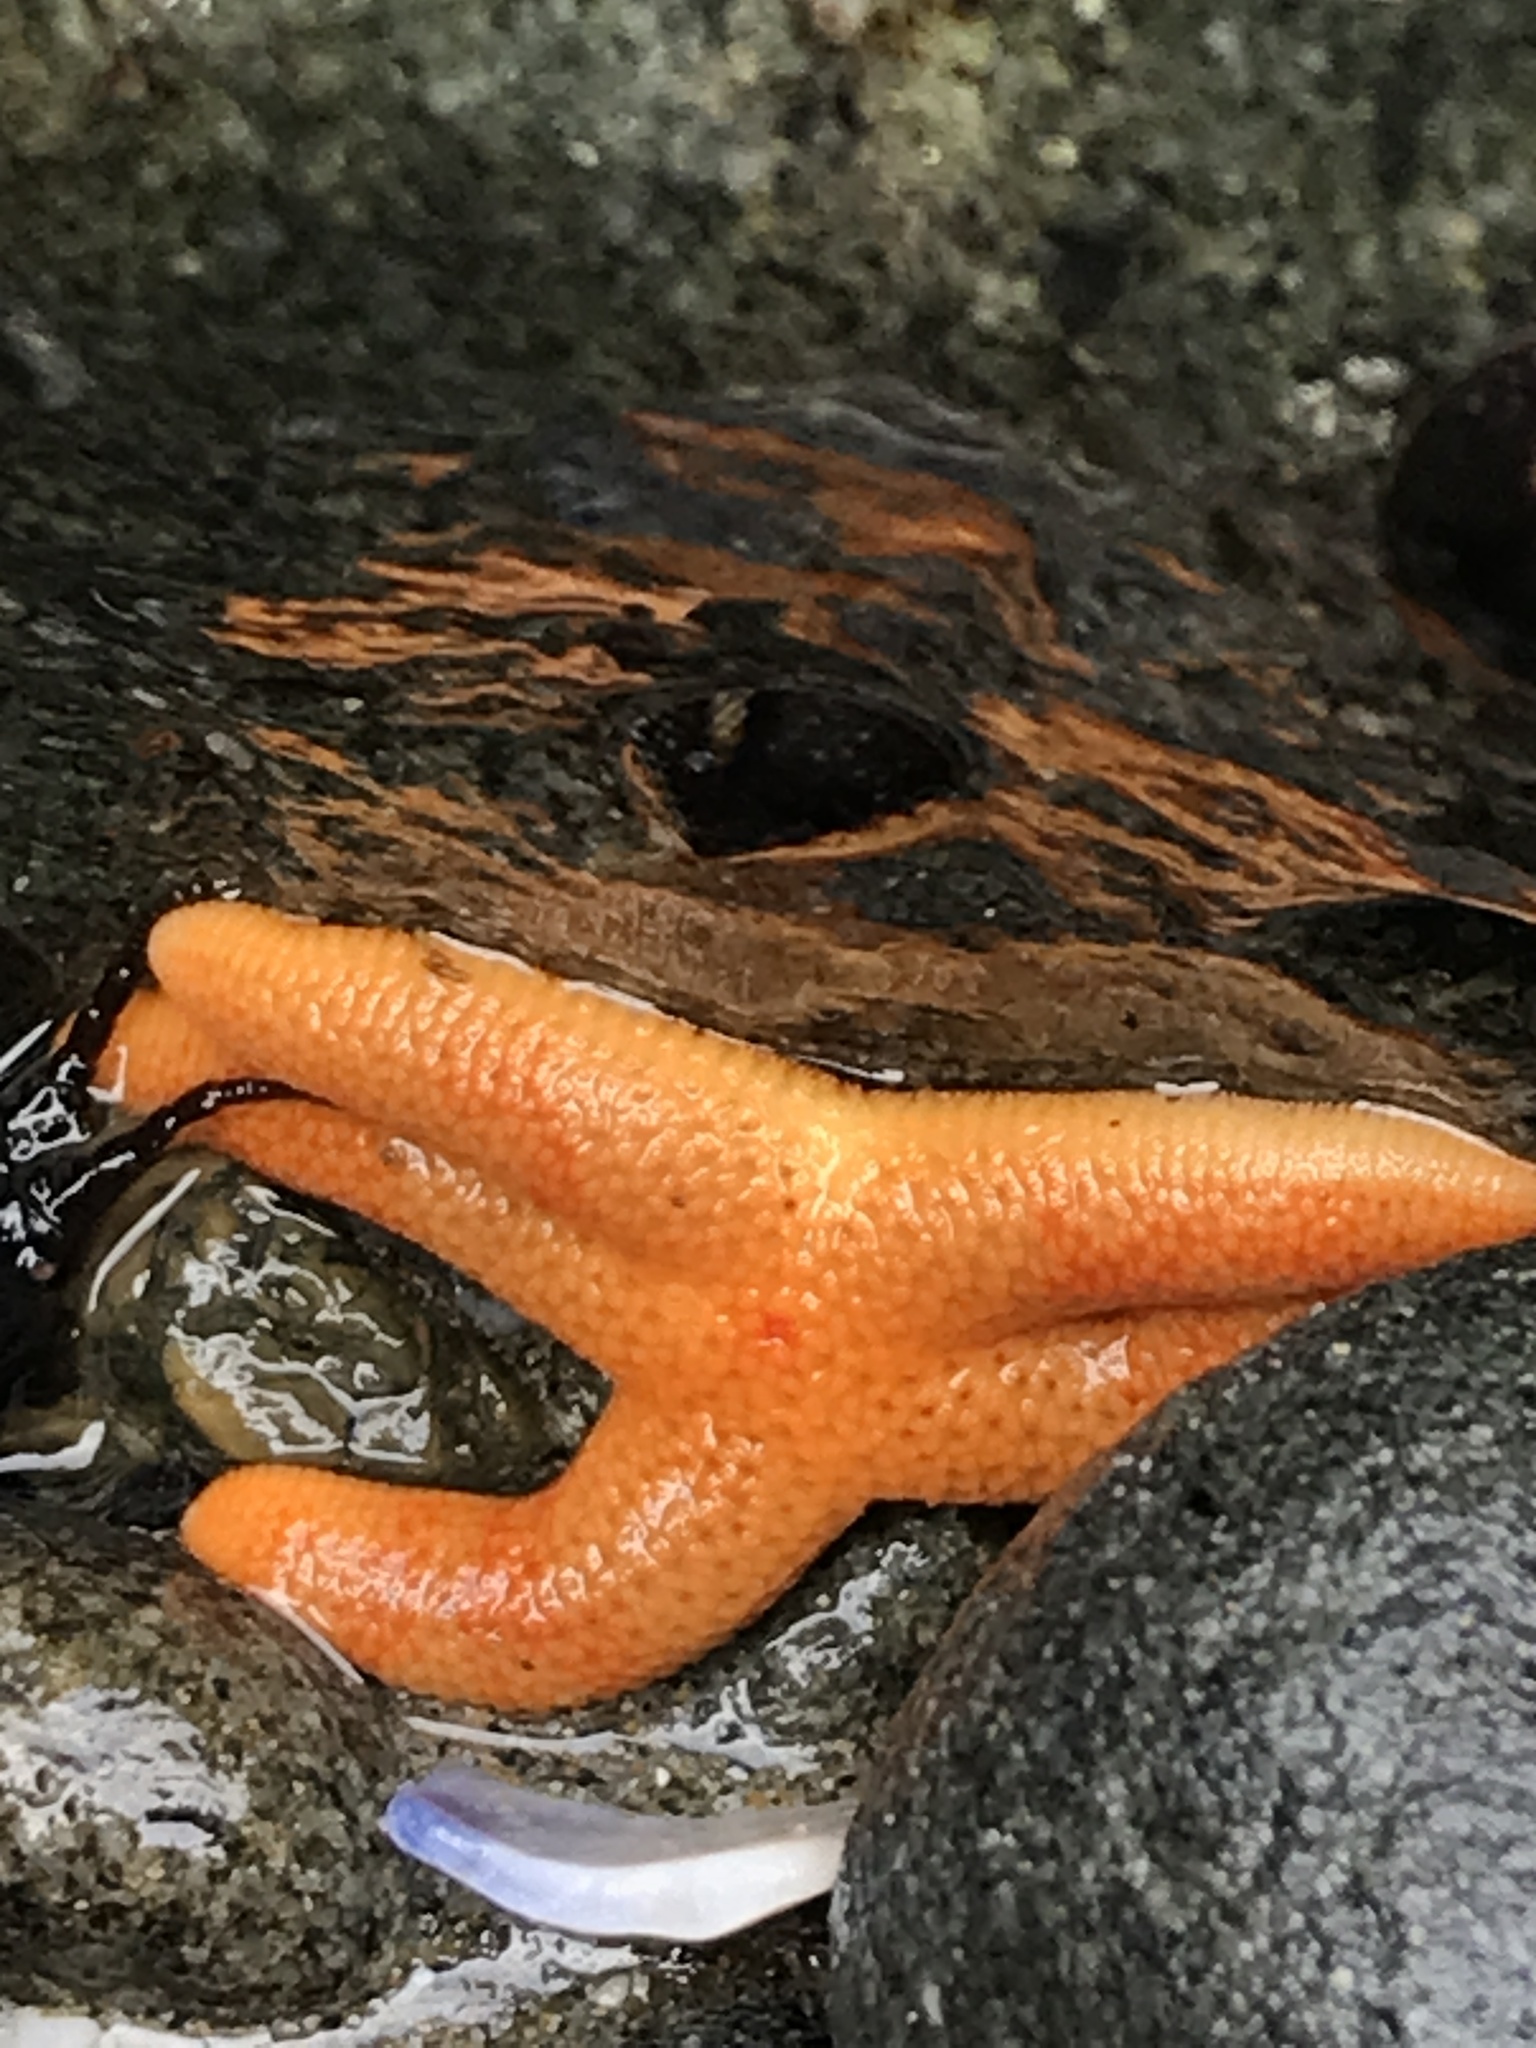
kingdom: Animalia
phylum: Echinodermata
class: Asteroidea
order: Spinulosida
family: Echinasteridae
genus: Henricia
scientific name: Henricia
